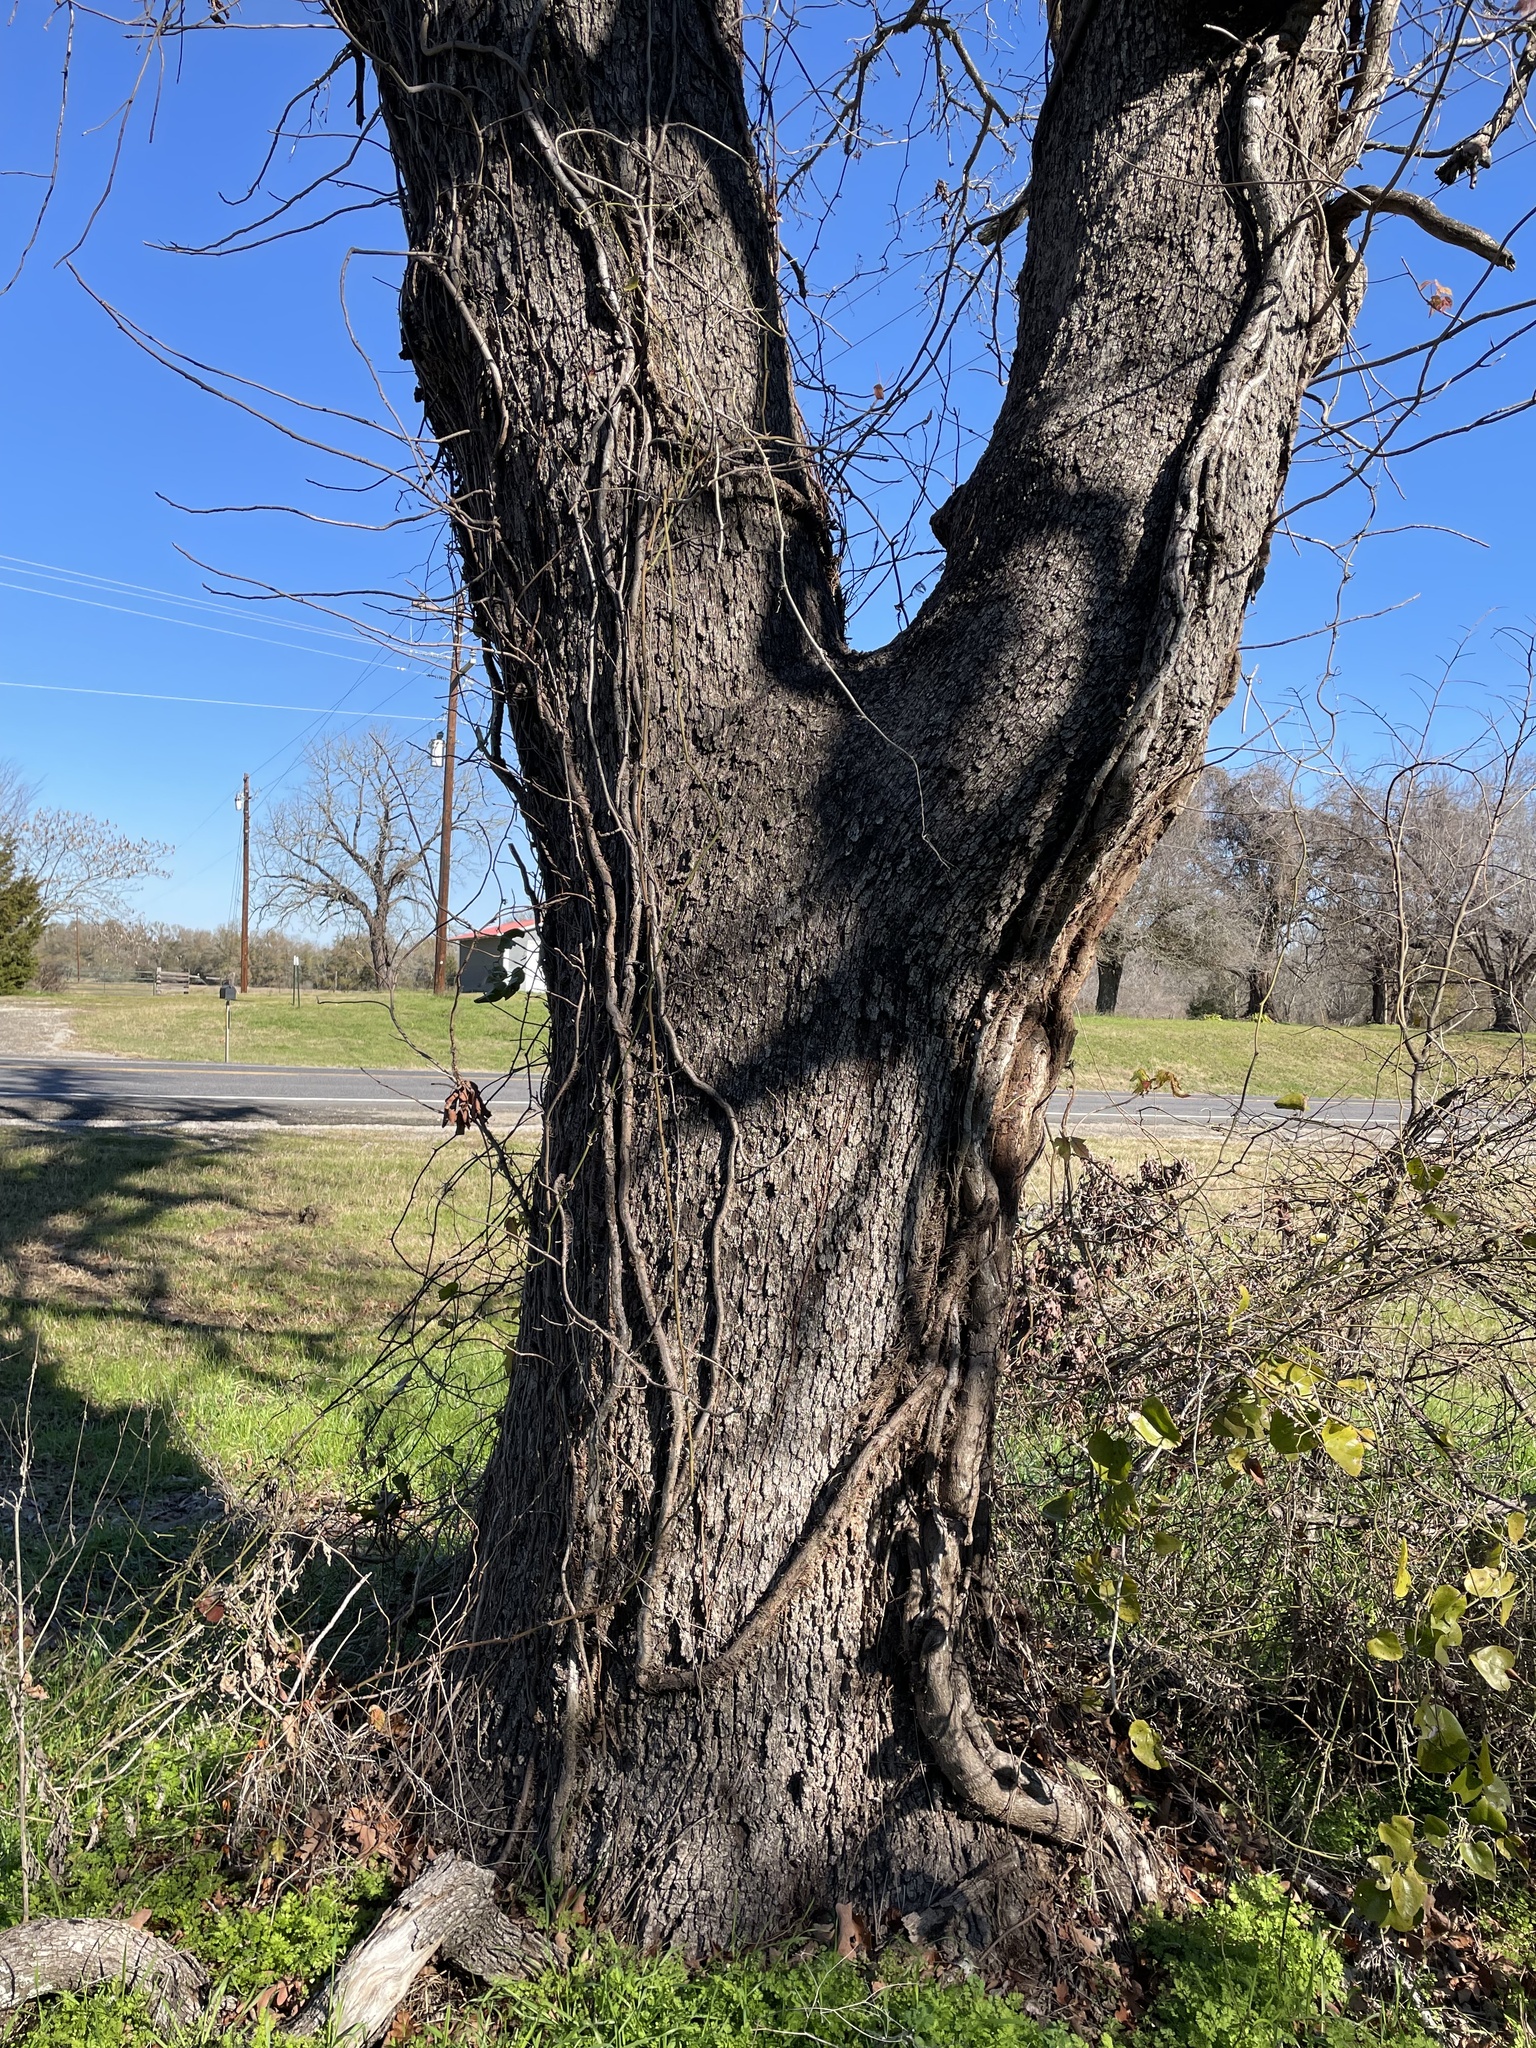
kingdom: Plantae
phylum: Tracheophyta
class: Magnoliopsida
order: Fagales
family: Fagaceae
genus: Quercus
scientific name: Quercus stellata
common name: Post oak
